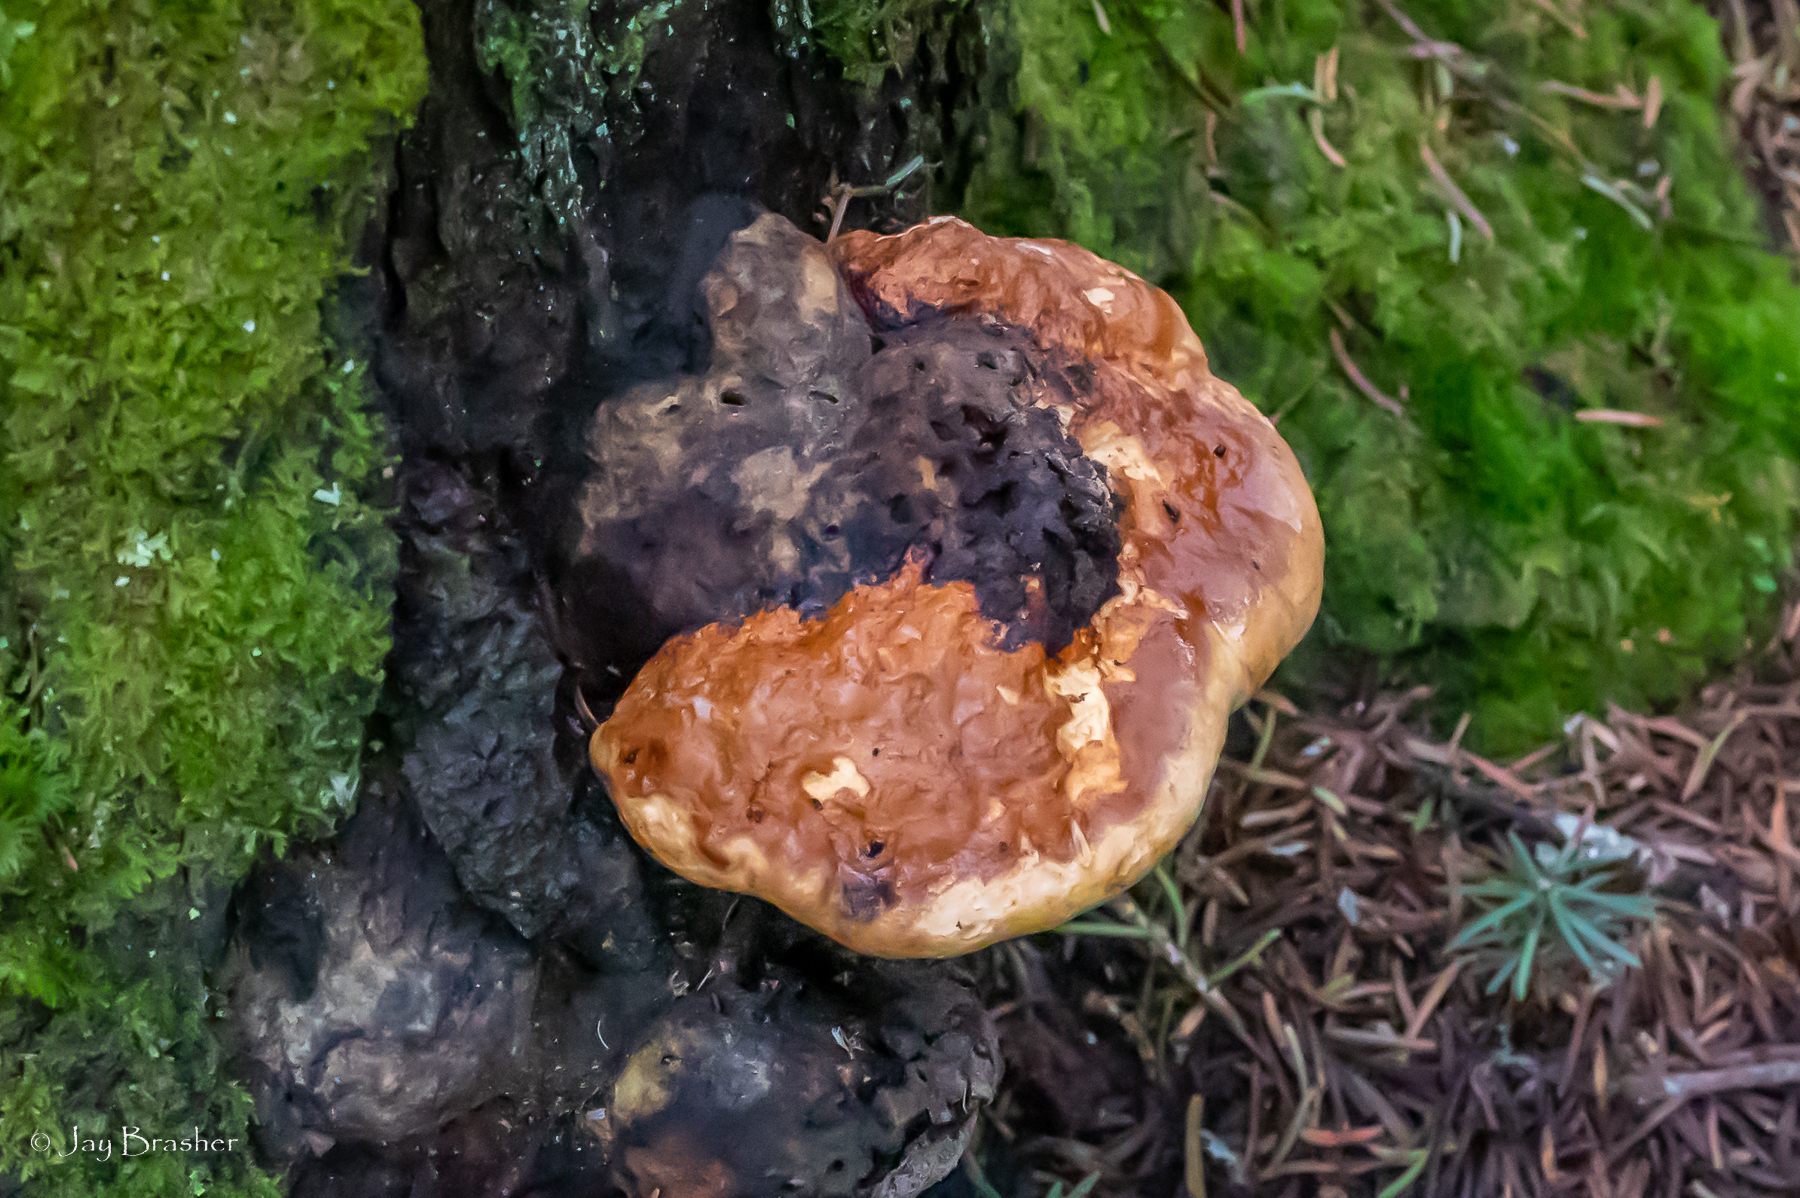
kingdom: Fungi
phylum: Basidiomycota
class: Agaricomycetes
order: Polyporales
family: Fomitopsidaceae
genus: Fomitopsis
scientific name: Fomitopsis mounceae
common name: Northern red belt
